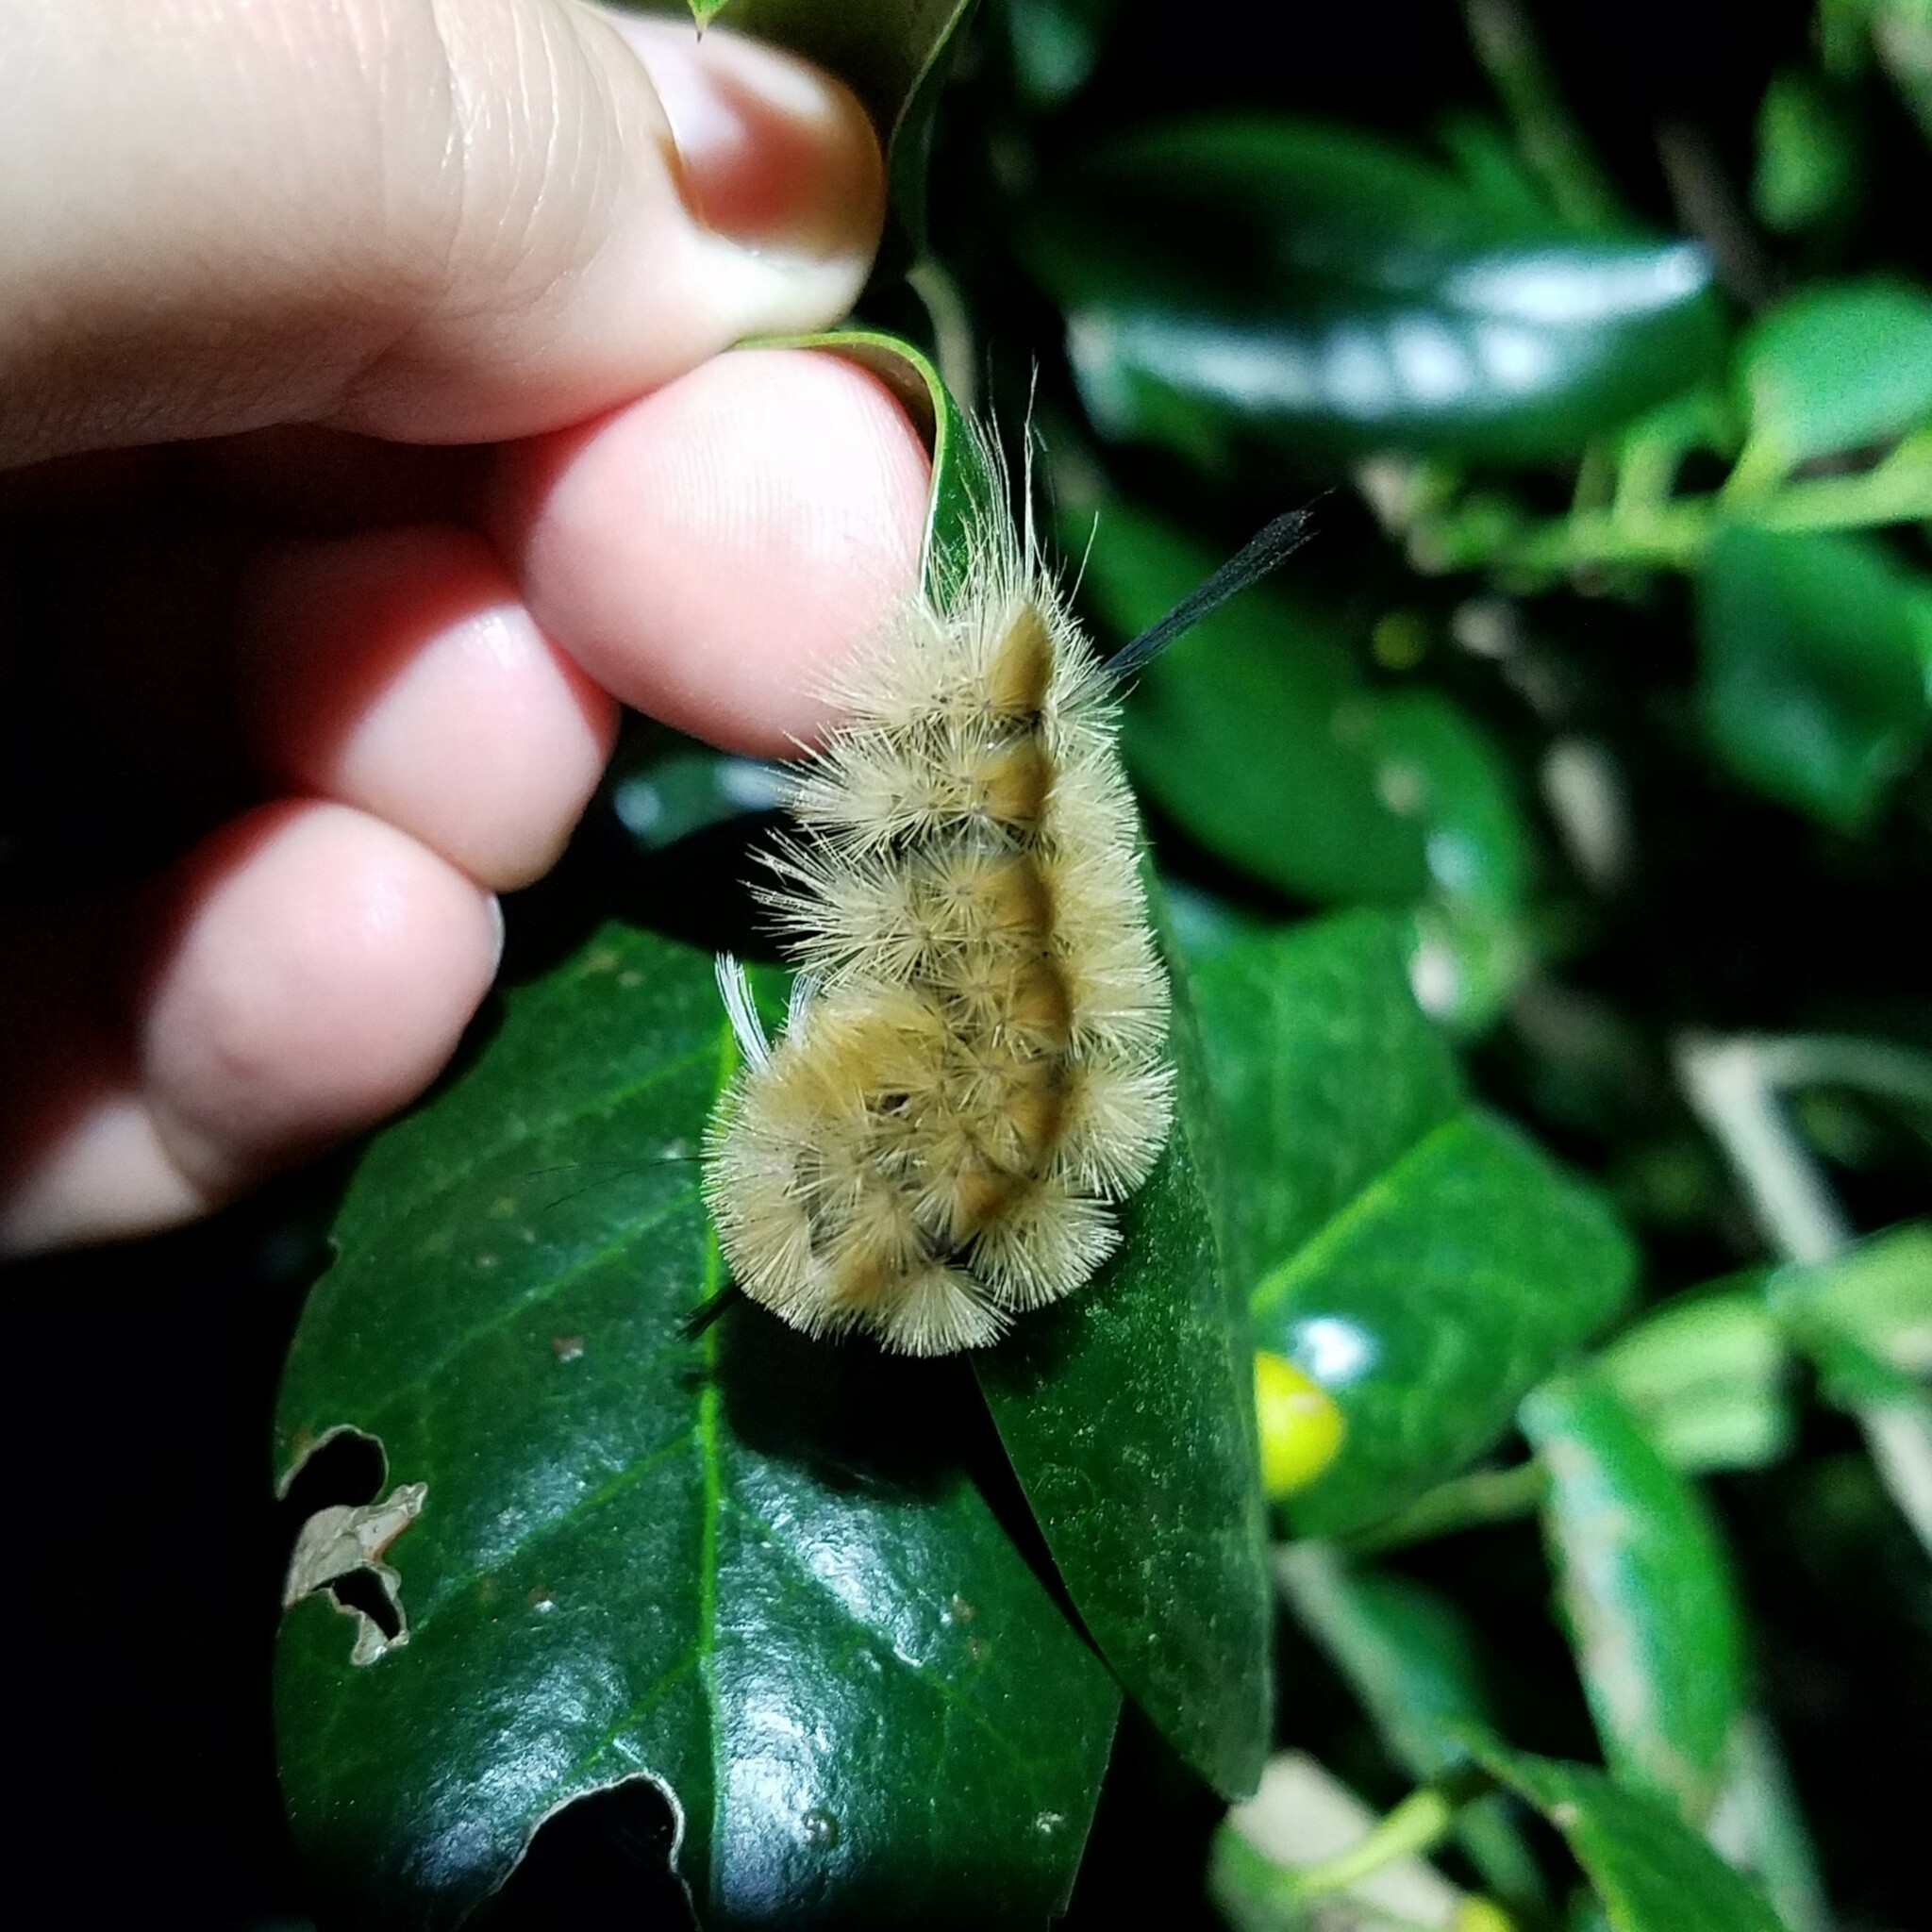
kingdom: Animalia
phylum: Arthropoda
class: Insecta
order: Lepidoptera
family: Erebidae
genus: Halysidota
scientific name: Halysidota tessellaris
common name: Banded tussock moth
